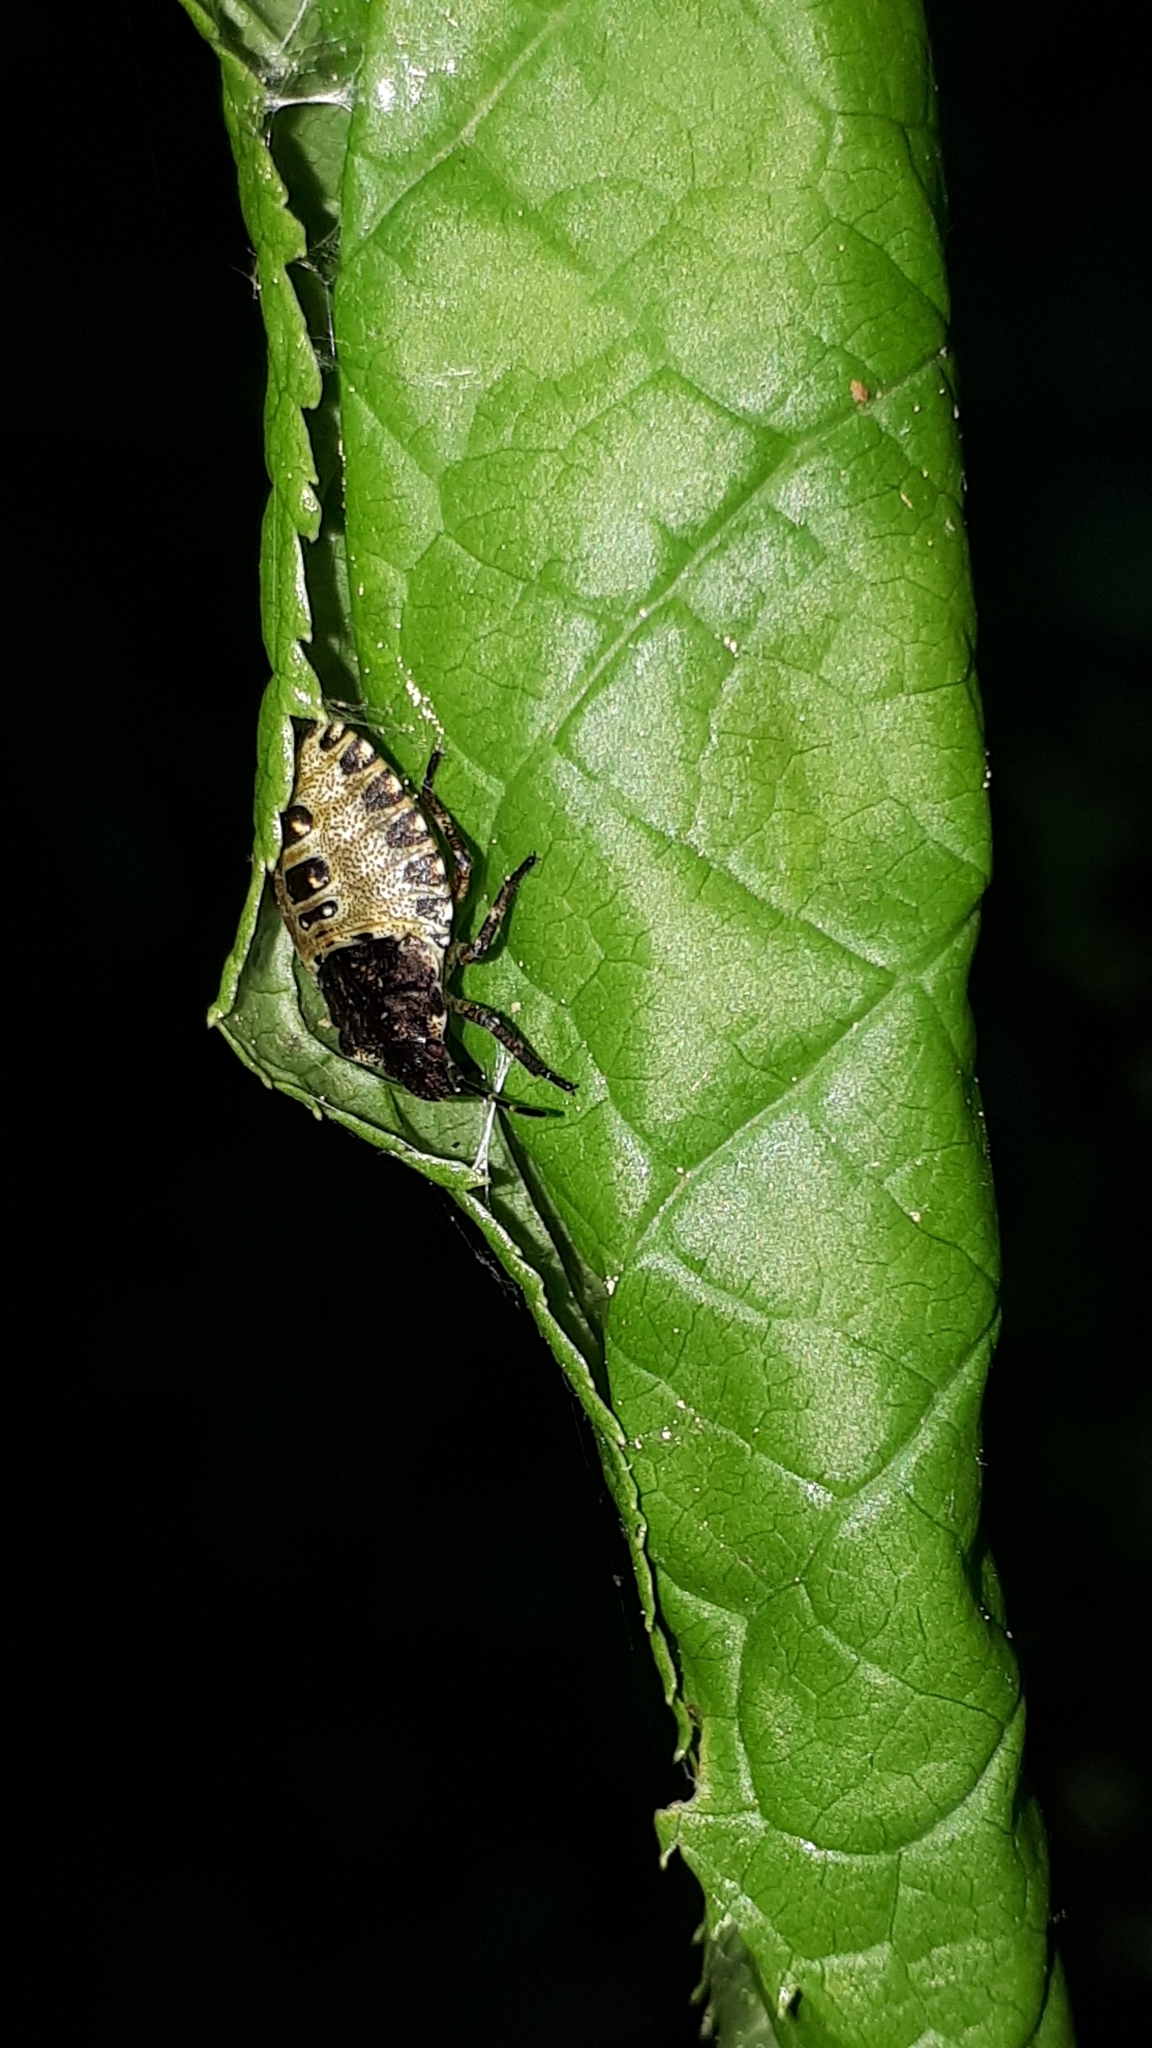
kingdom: Animalia
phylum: Arthropoda
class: Insecta
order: Hemiptera
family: Pentatomidae
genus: Pentatoma
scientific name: Pentatoma rufipes
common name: Forest bug
